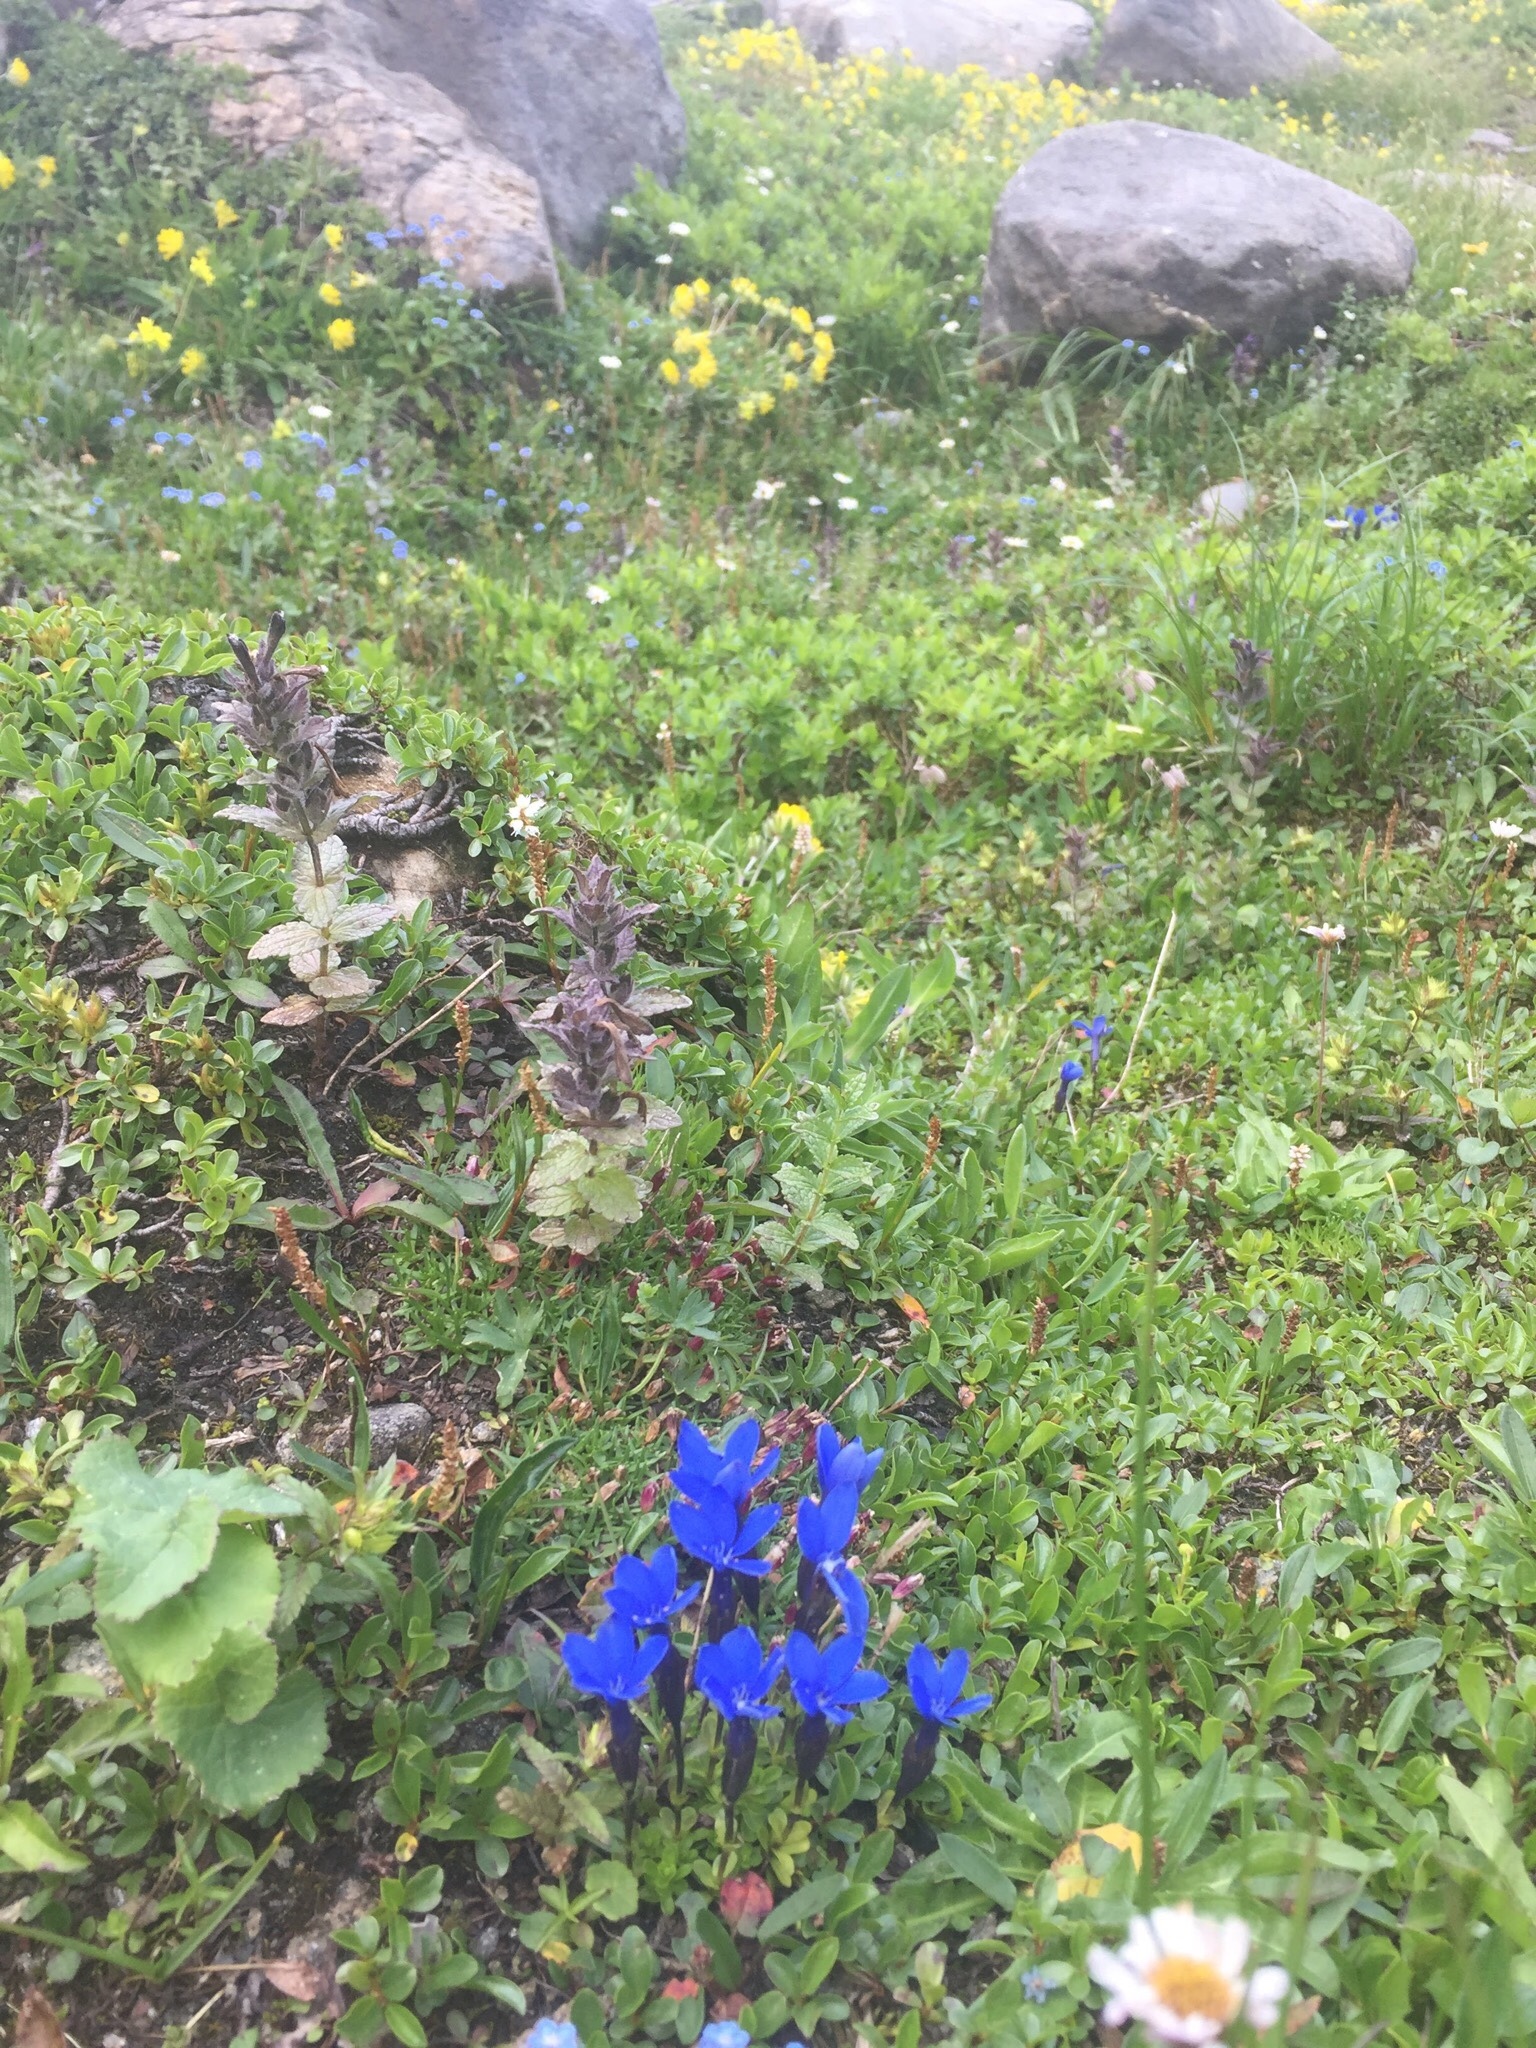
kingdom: Plantae
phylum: Tracheophyta
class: Magnoliopsida
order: Gentianales
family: Gentianaceae
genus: Gentiana
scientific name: Gentiana bavarica
